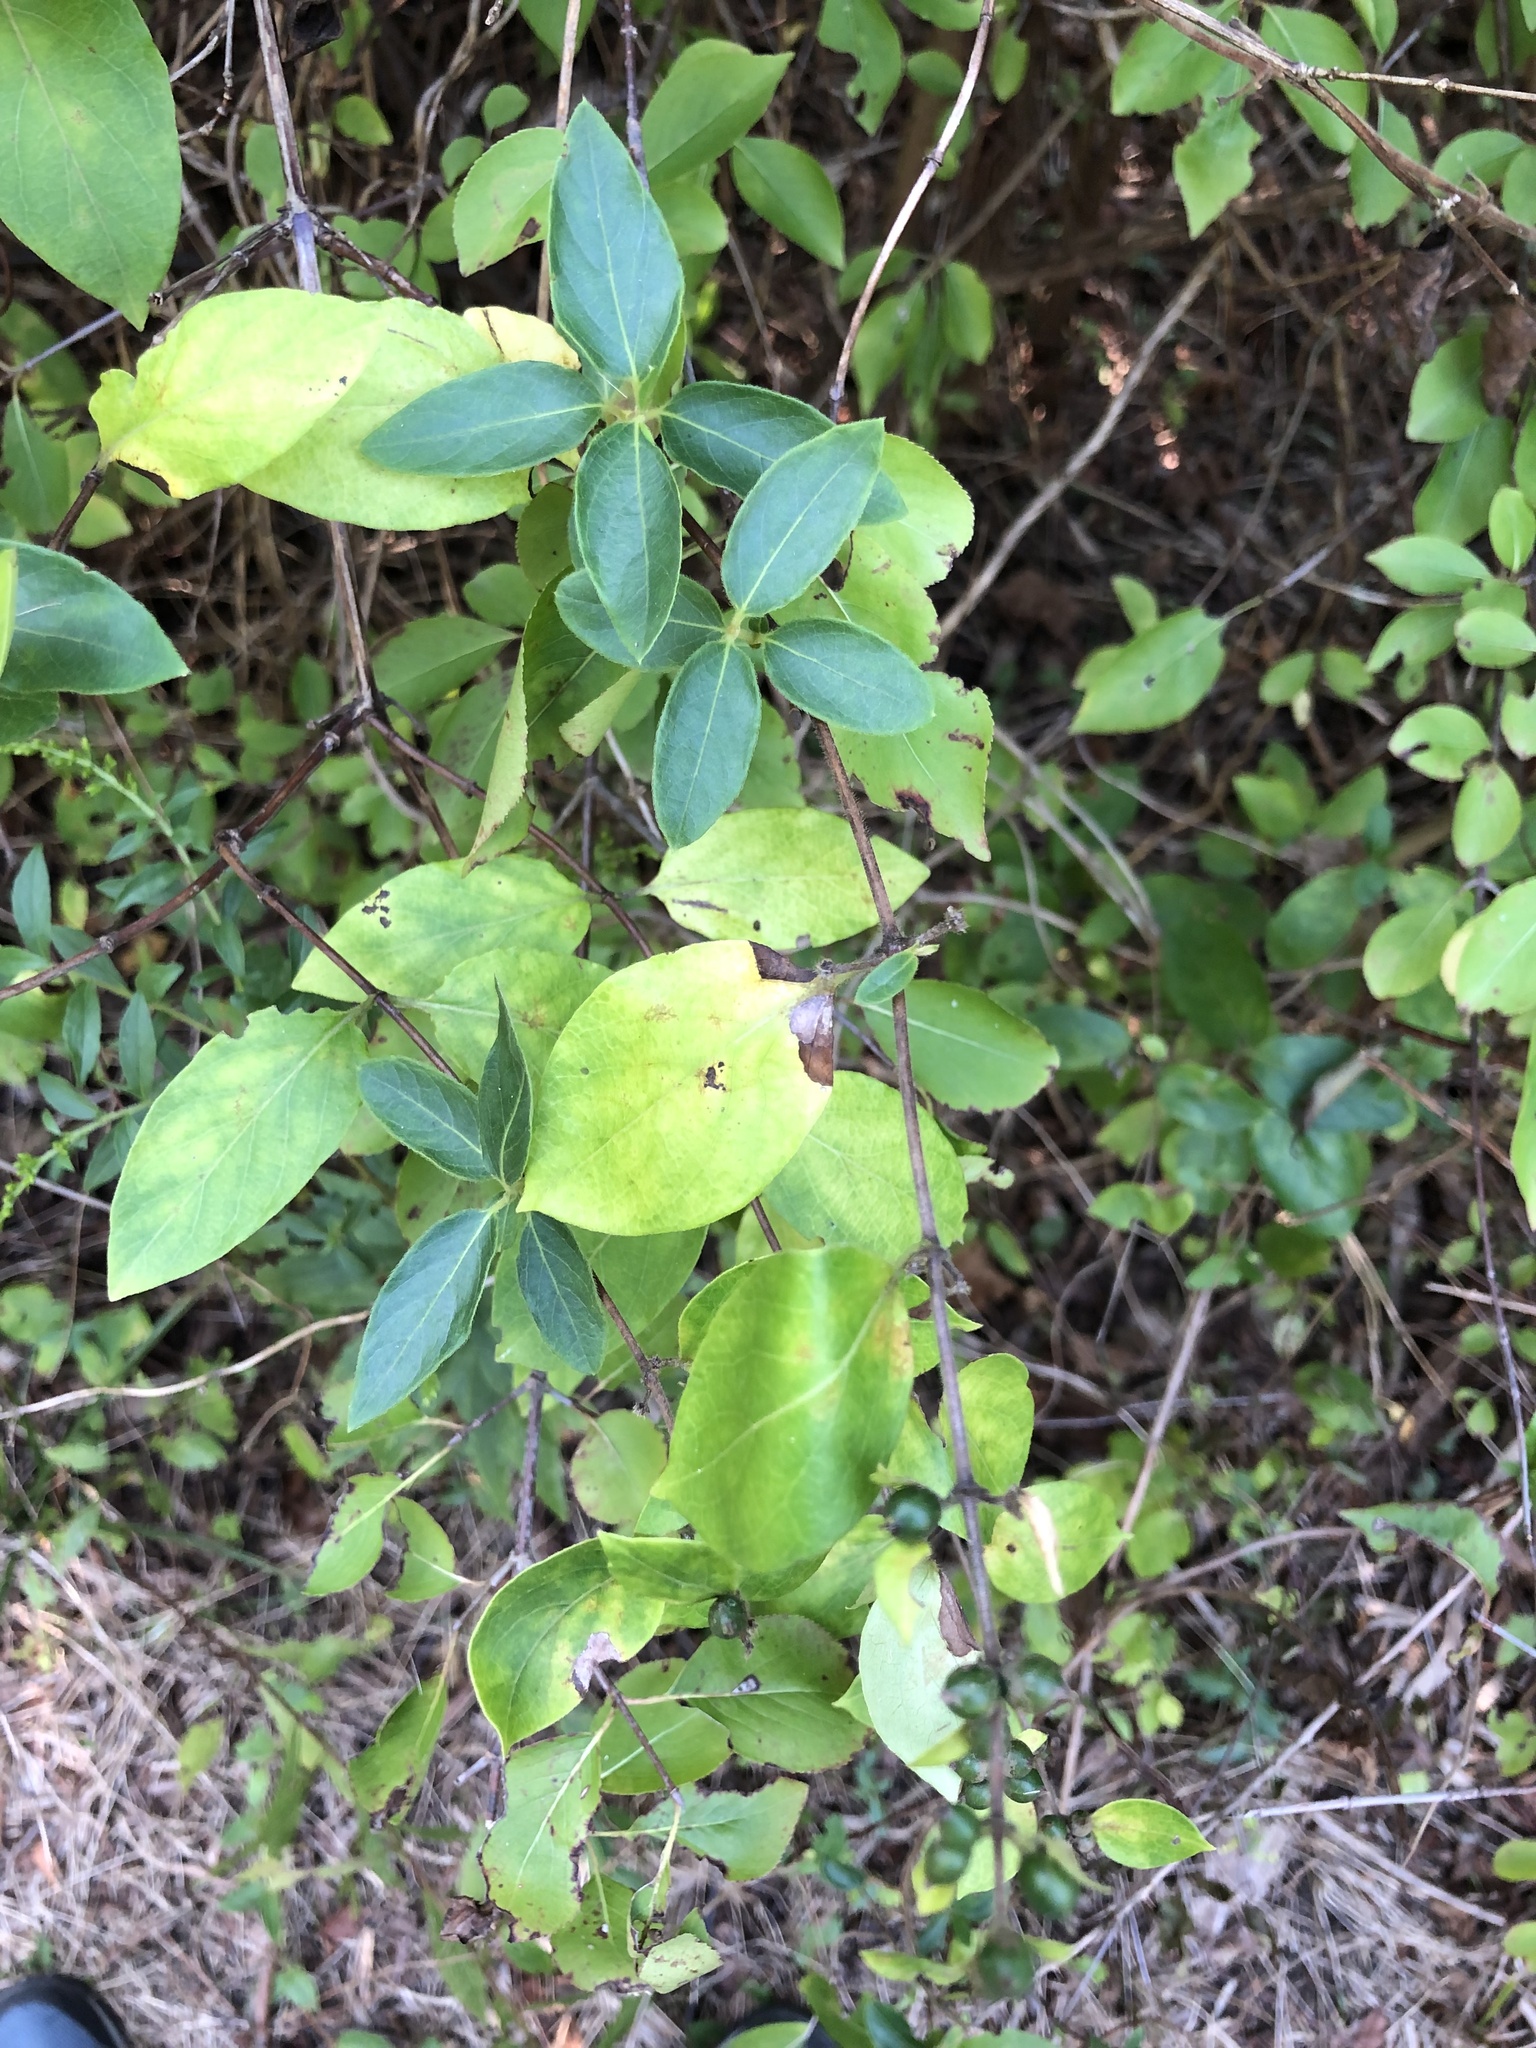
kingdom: Plantae
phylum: Tracheophyta
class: Magnoliopsida
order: Dipsacales
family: Caprifoliaceae
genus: Lonicera
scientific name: Lonicera japonica
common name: Japanese honeysuckle
